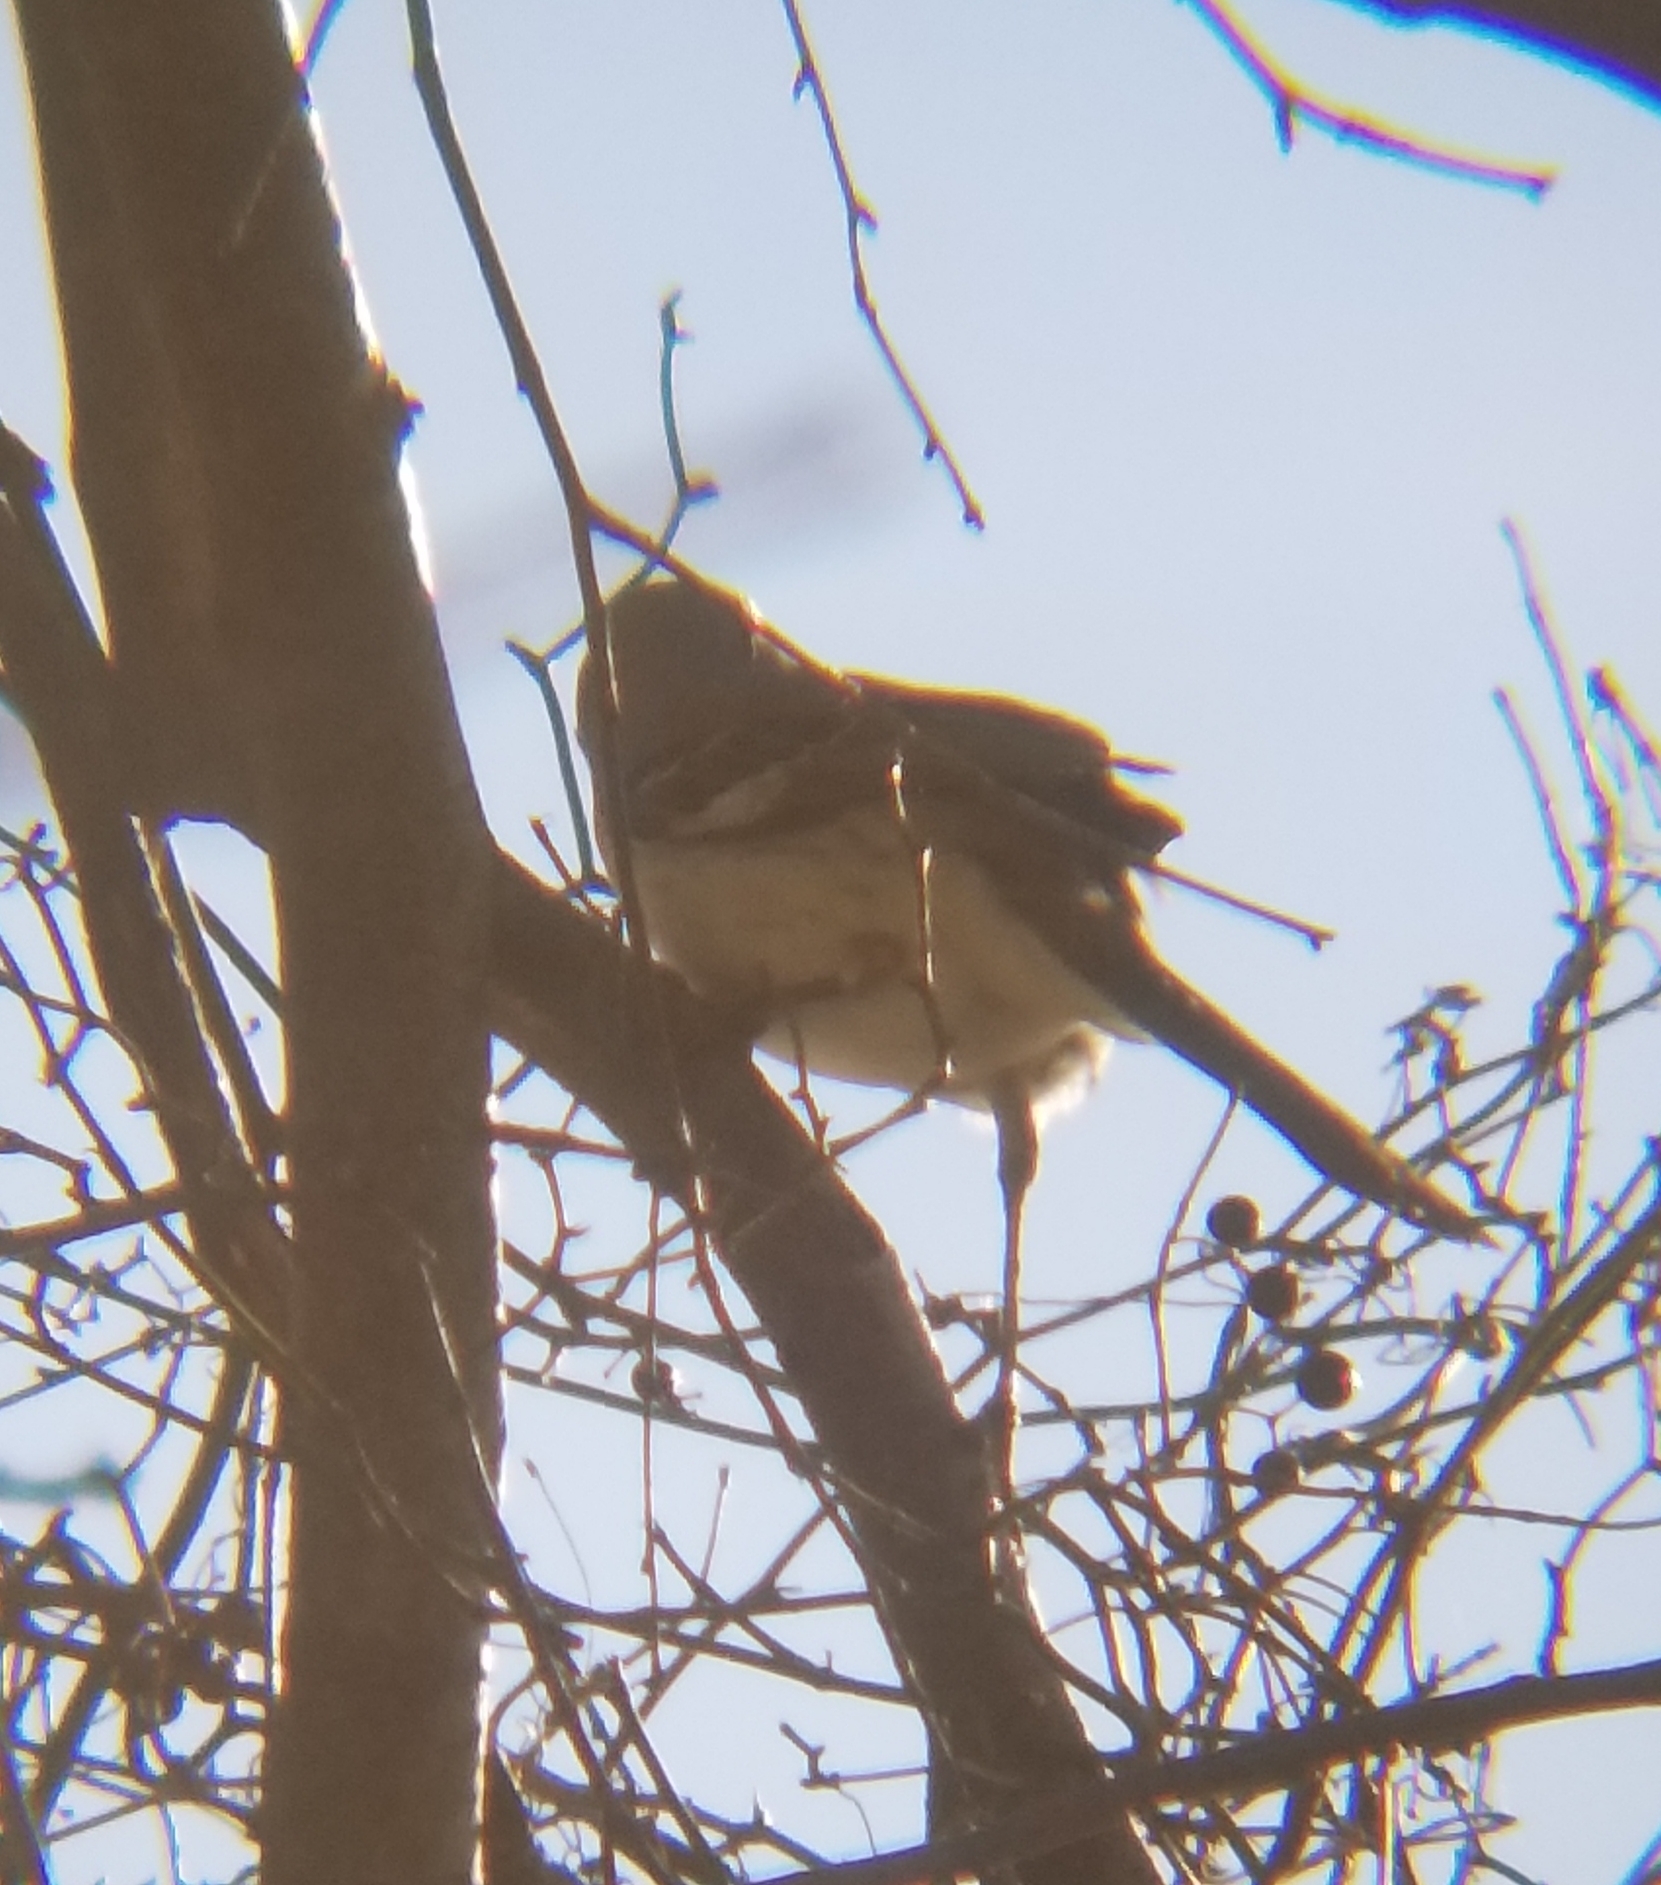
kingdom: Animalia
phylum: Chordata
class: Aves
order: Passeriformes
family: Mimidae
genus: Mimus
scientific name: Mimus polyglottos
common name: Northern mockingbird
